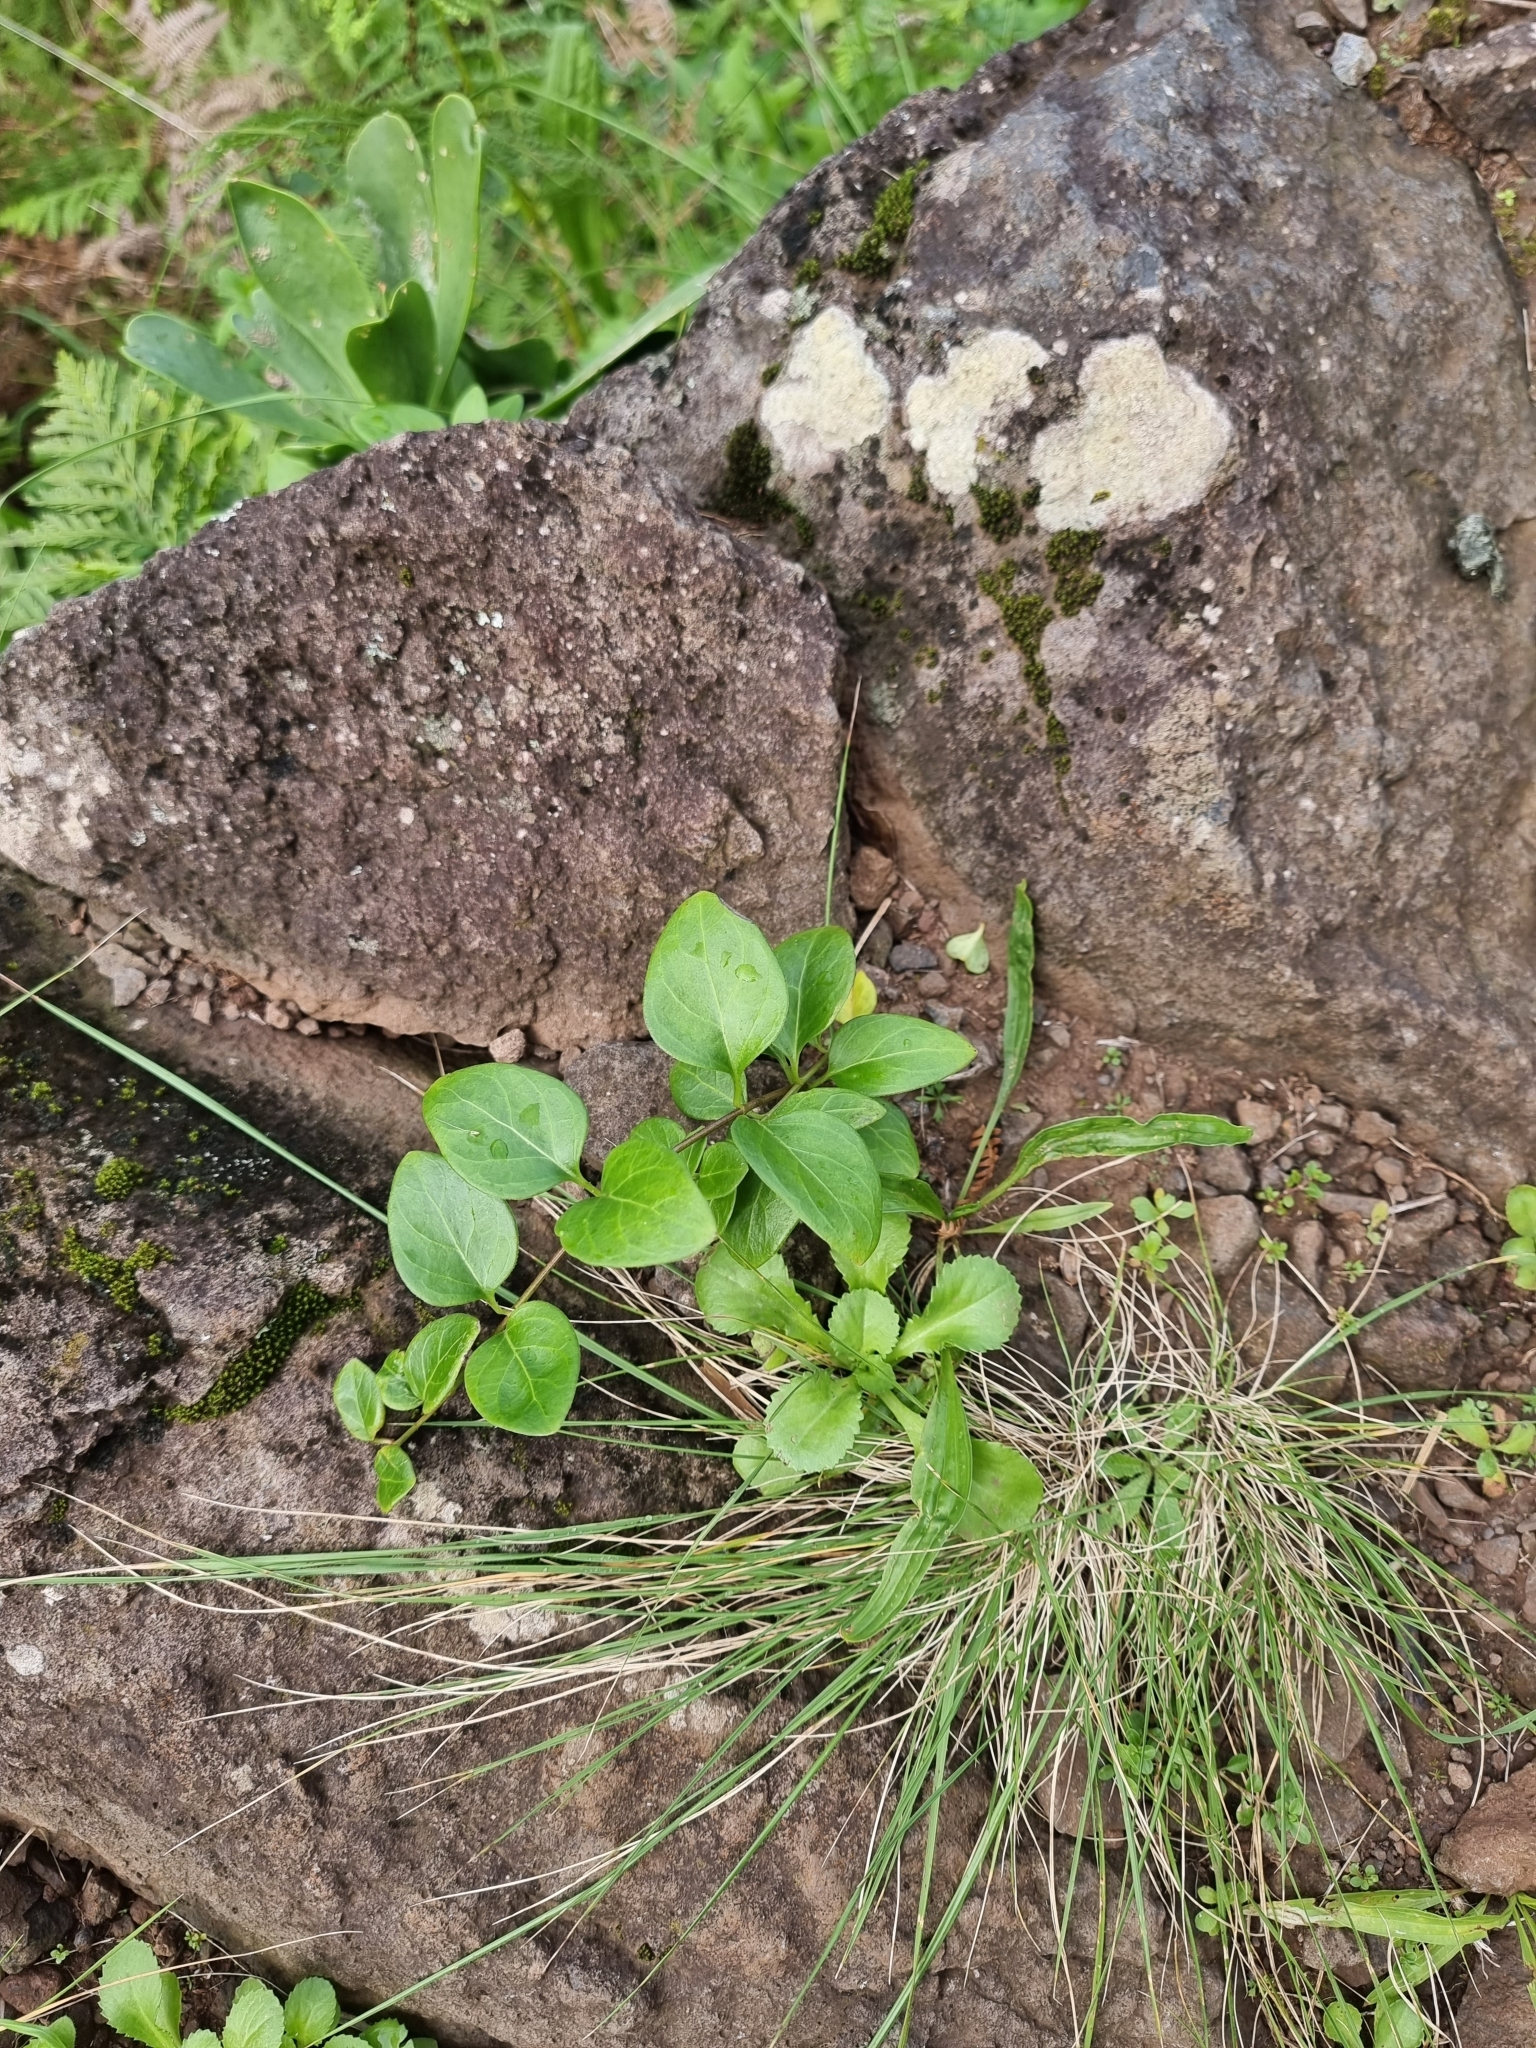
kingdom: Plantae
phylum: Tracheophyta
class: Magnoliopsida
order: Gentianales
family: Apocynaceae
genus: Vinca
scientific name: Vinca major
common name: Greater periwinkle
